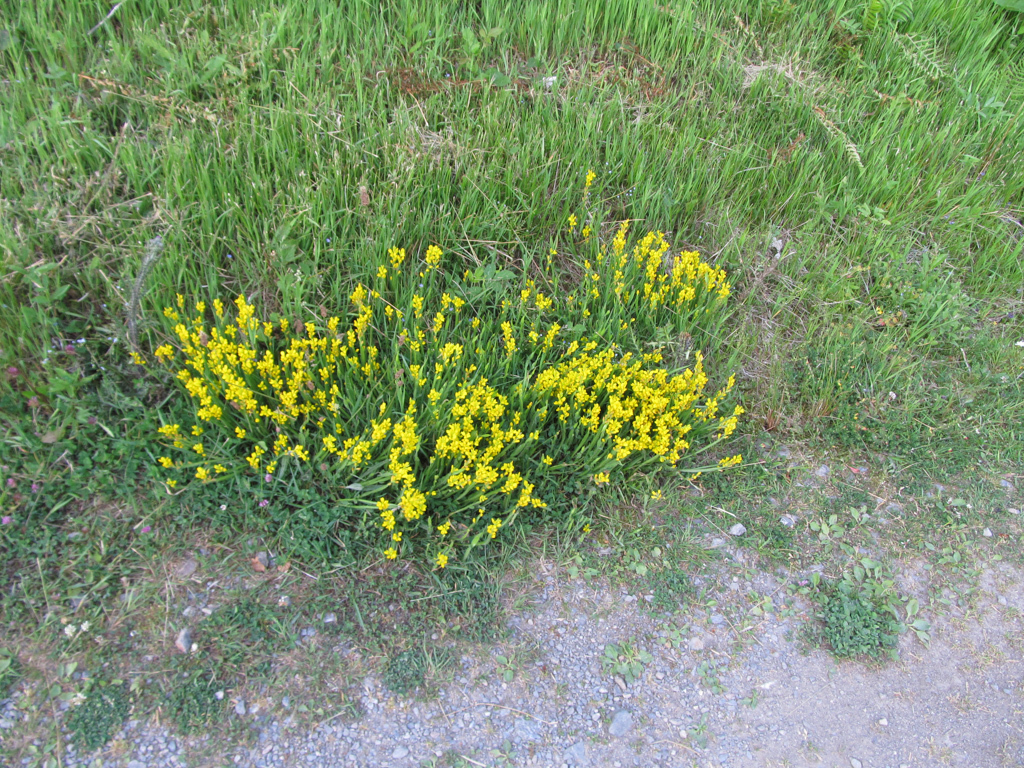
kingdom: Plantae
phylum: Tracheophyta
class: Magnoliopsida
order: Fabales
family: Fabaceae
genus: Genista
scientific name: Genista sagittalis
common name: Winged greenweed
